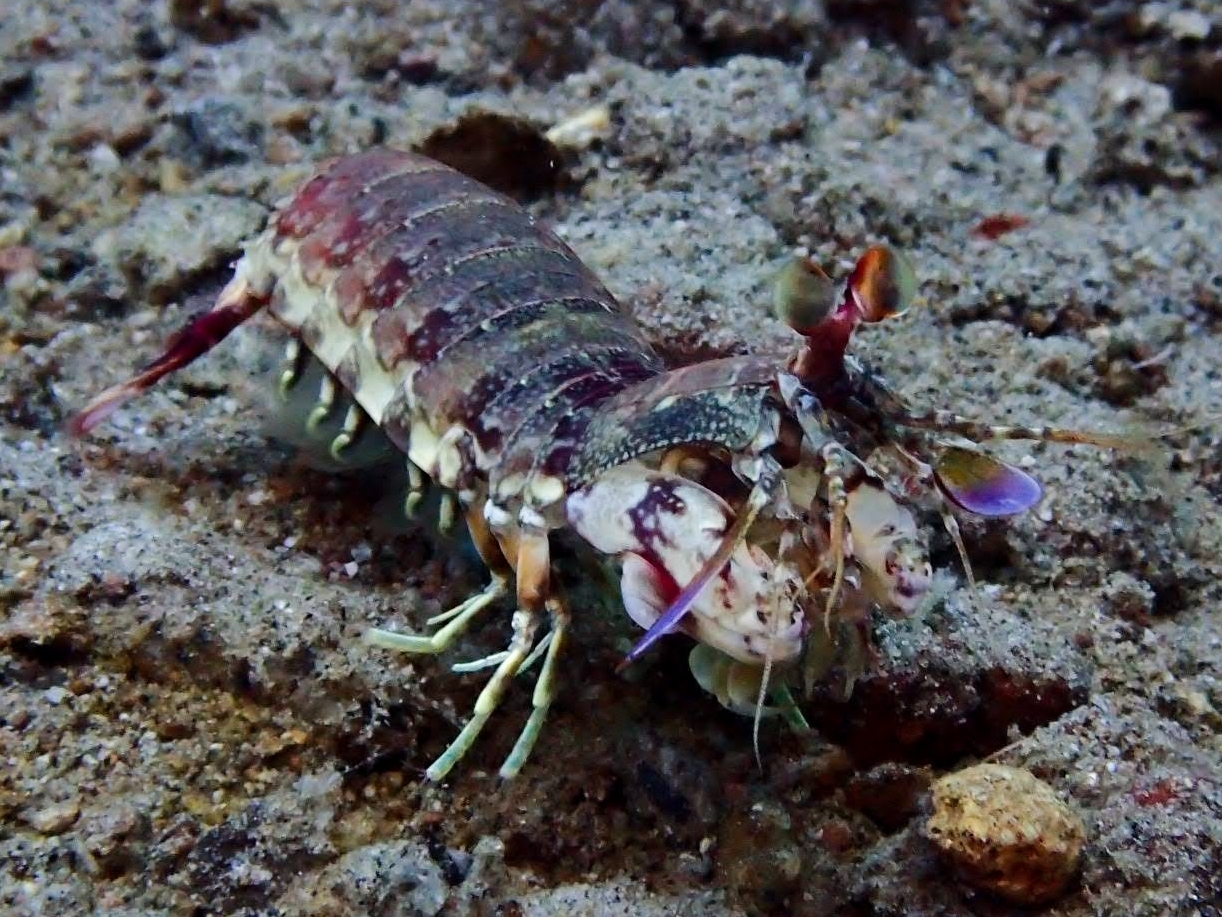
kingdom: Animalia
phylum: Arthropoda
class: Malacostraca
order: Stomatopoda
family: Odontodactylidae
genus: Odontodactylus
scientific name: Odontodactylus latirostris
